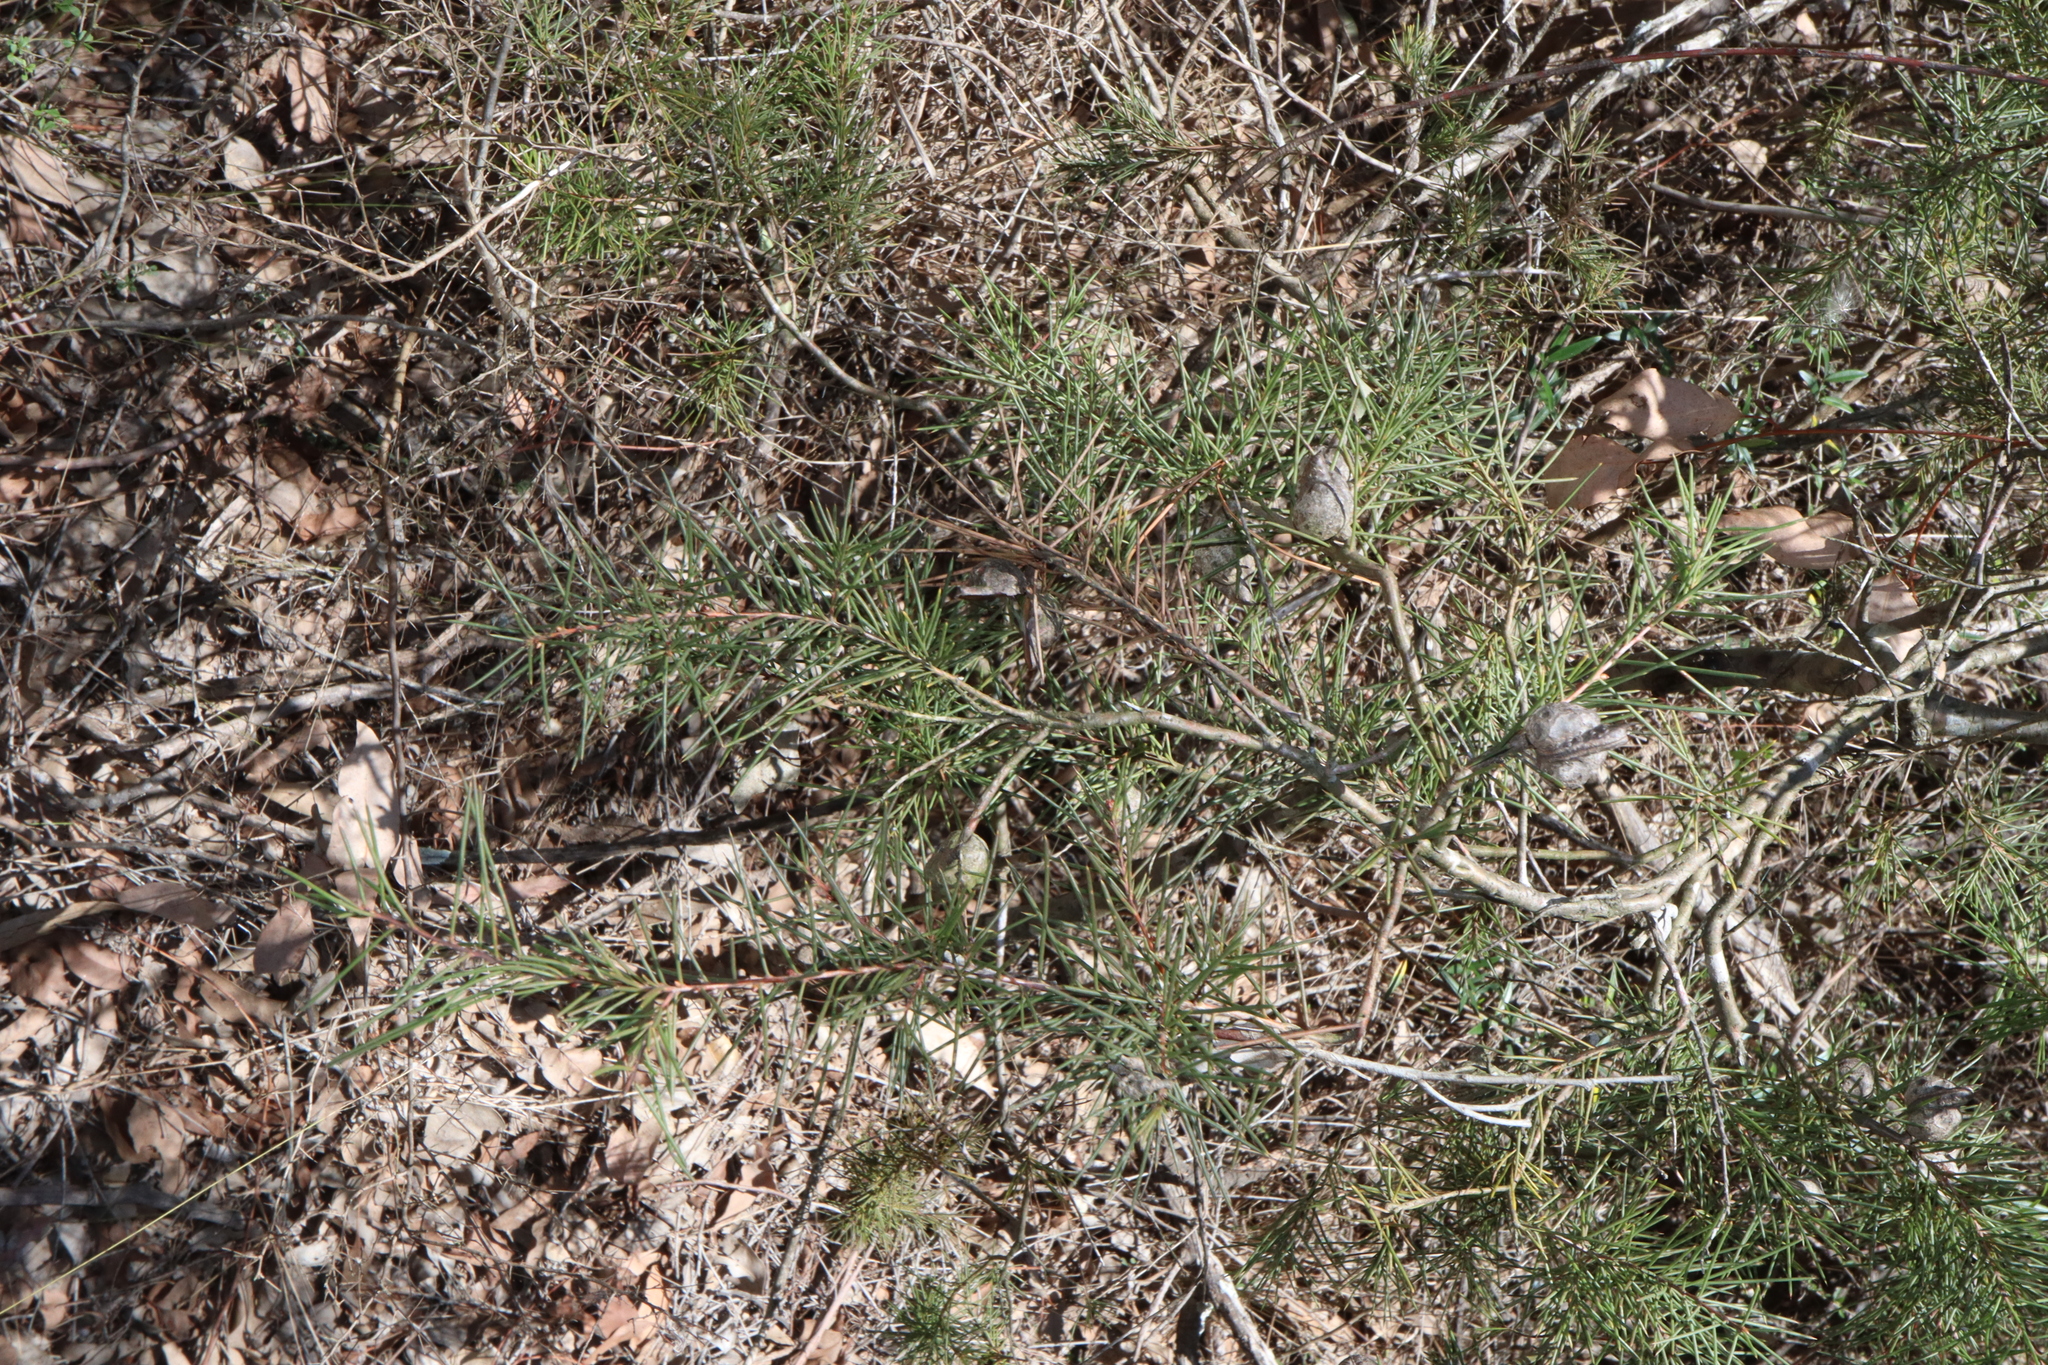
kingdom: Plantae
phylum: Tracheophyta
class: Magnoliopsida
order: Proteales
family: Proteaceae
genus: Hakea
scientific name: Hakea sericea
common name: Needle bush
